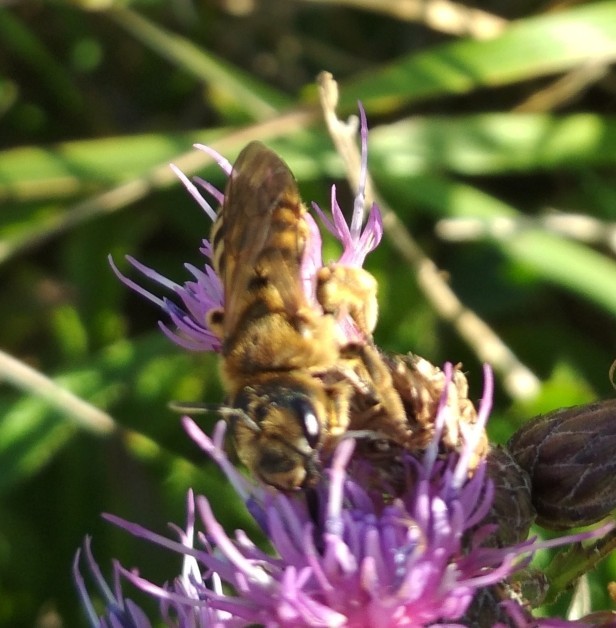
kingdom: Animalia
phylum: Arthropoda
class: Insecta
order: Hymenoptera
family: Halictidae
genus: Halictus
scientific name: Halictus scabiosae
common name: Great banded furrow bee
